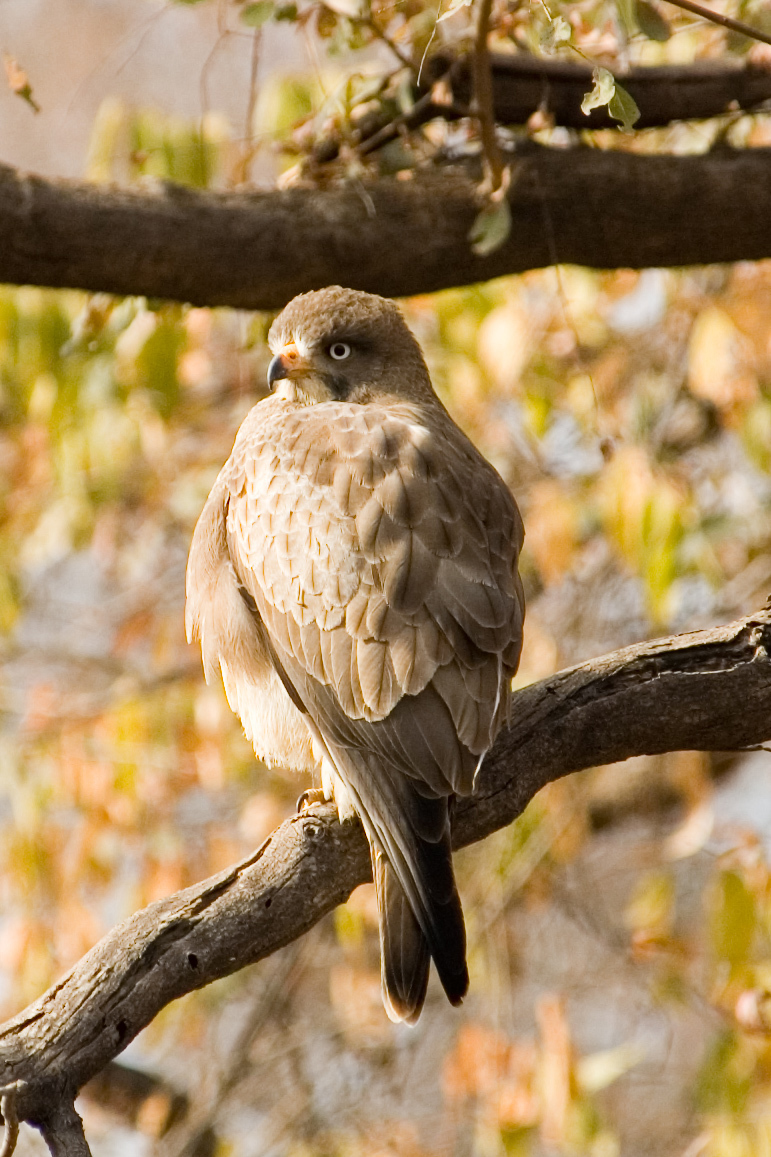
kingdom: Animalia
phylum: Chordata
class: Aves
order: Accipitriformes
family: Accipitridae
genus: Butastur
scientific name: Butastur teesa
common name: White-eyed buzzard
